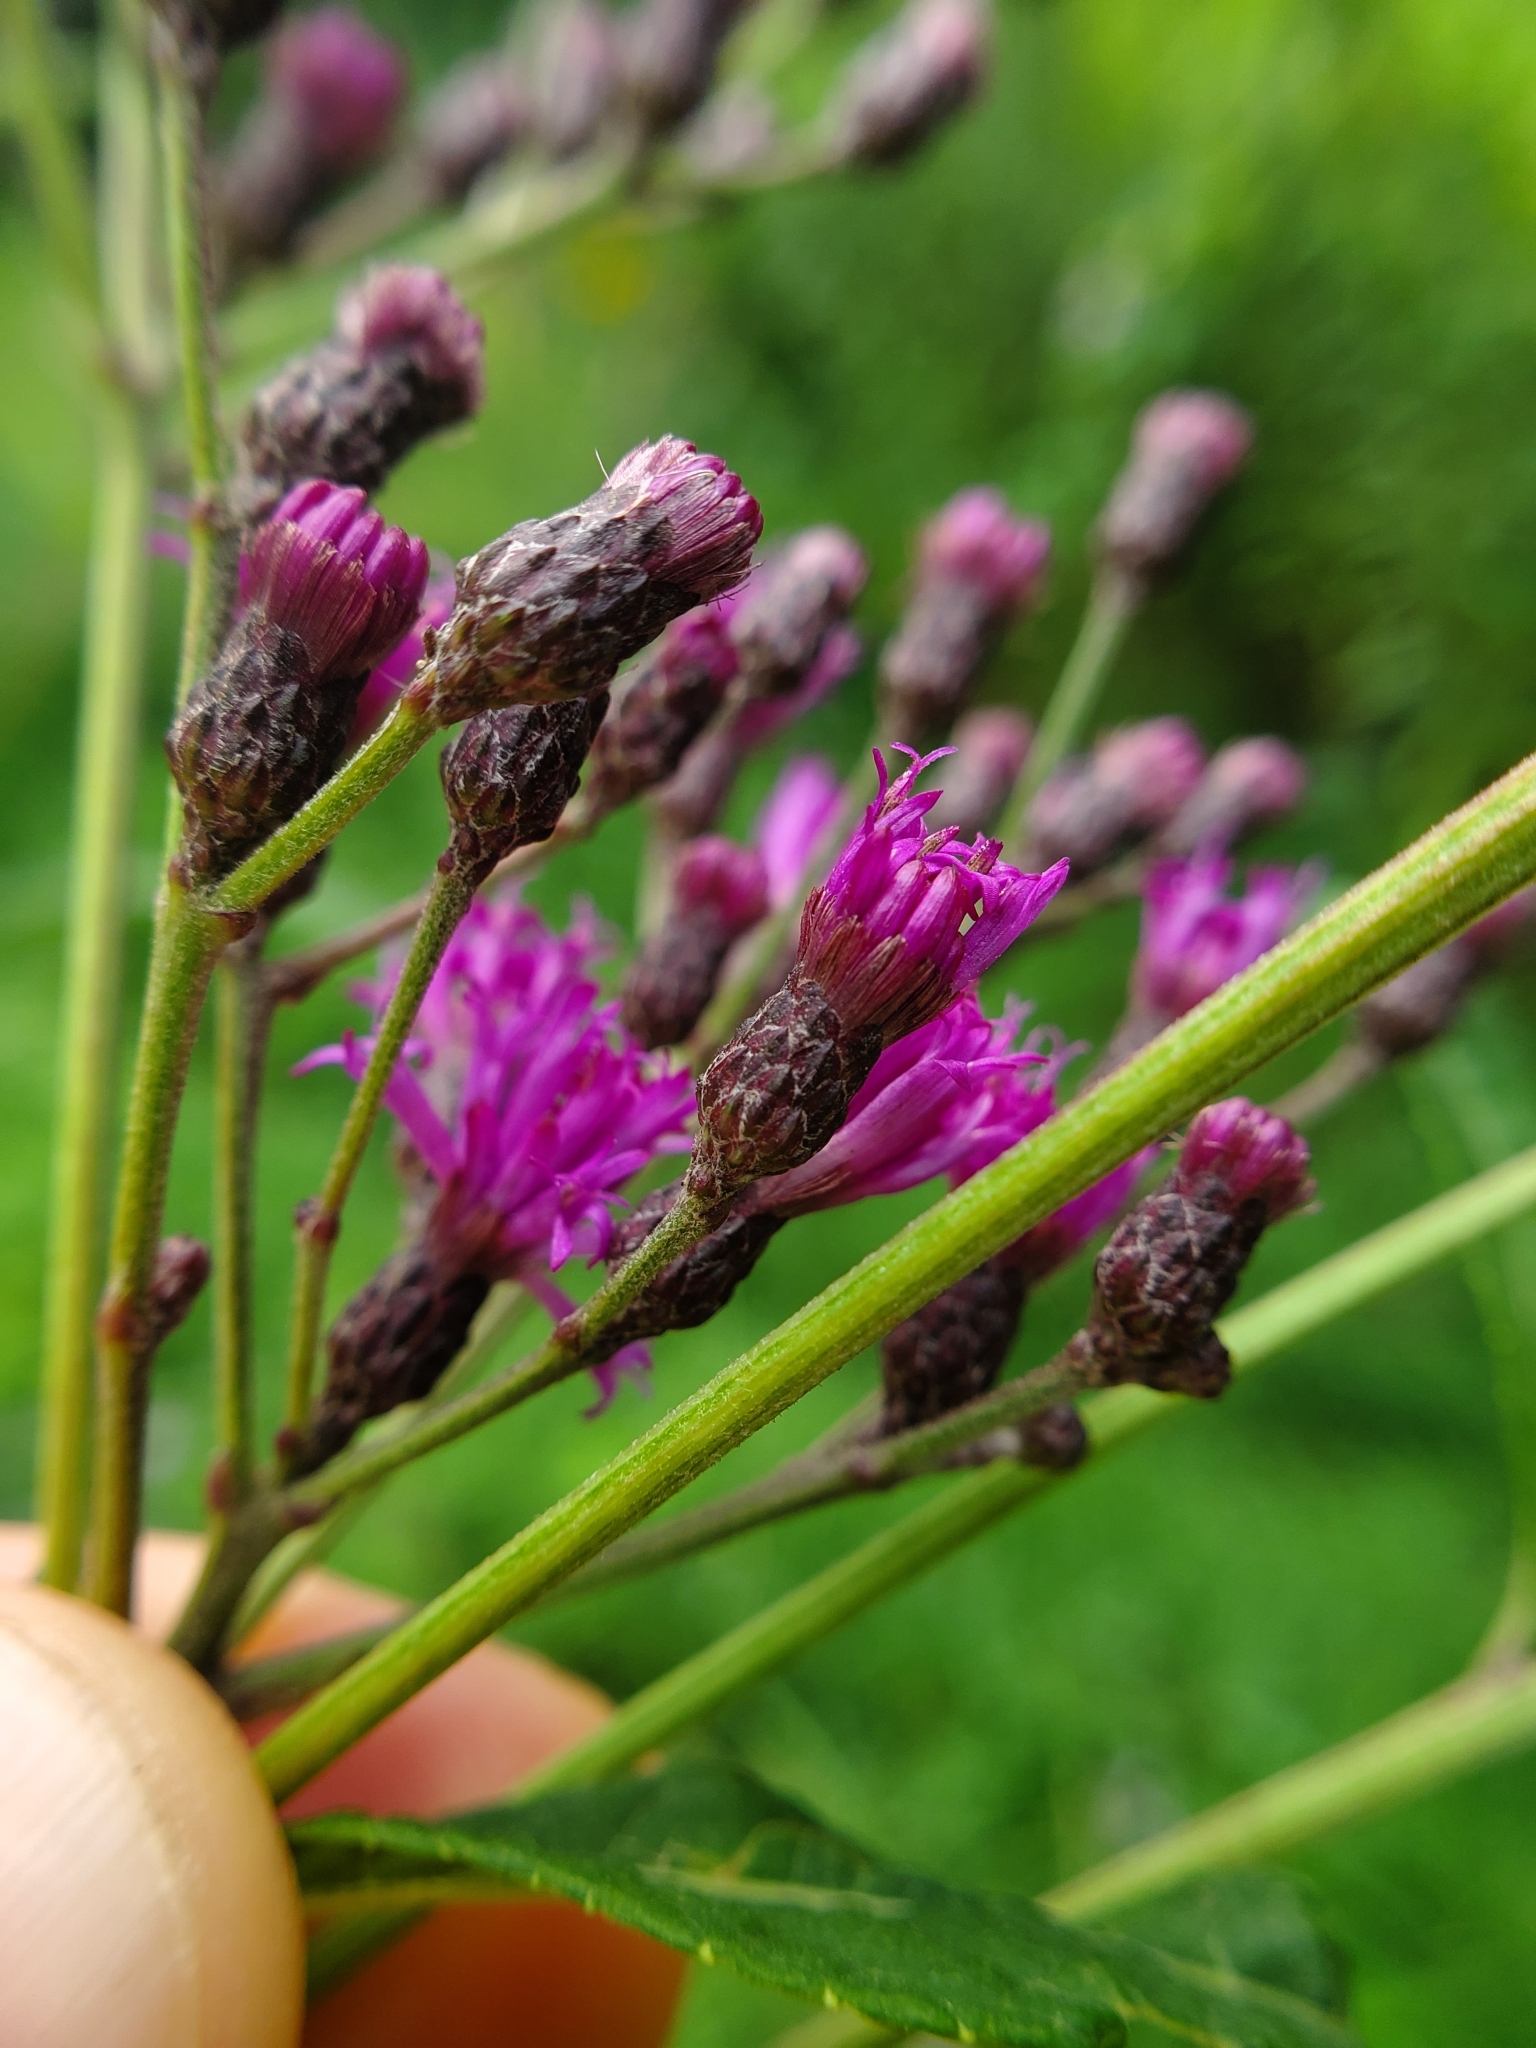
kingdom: Plantae
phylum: Tracheophyta
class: Magnoliopsida
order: Asterales
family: Asteraceae
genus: Vernonia
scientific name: Vernonia gigantea
